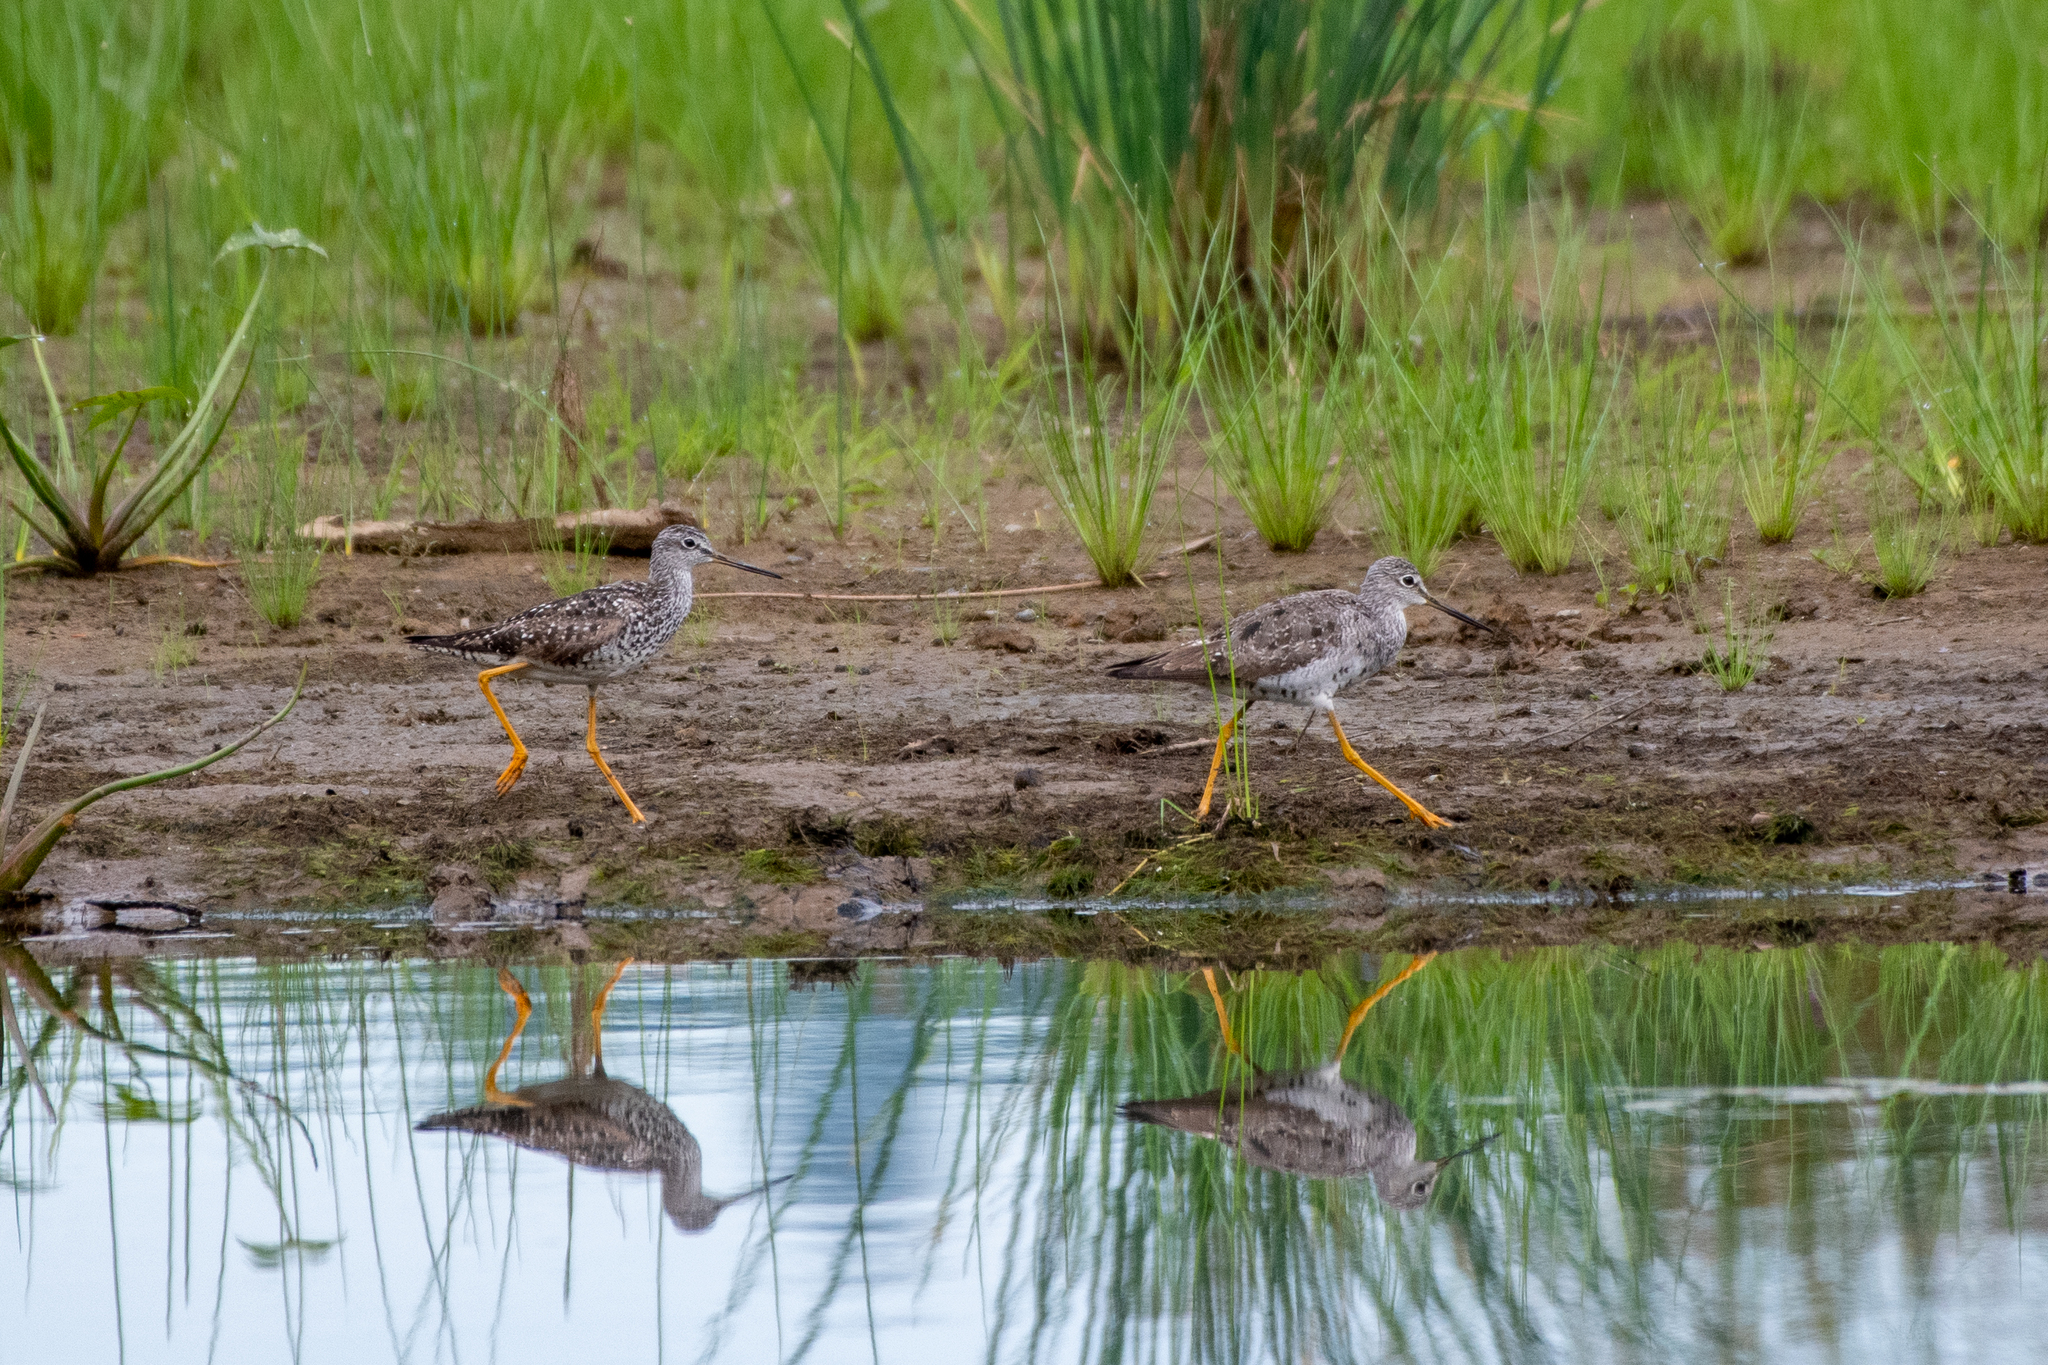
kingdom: Animalia
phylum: Chordata
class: Aves
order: Charadriiformes
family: Scolopacidae
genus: Tringa
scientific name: Tringa melanoleuca
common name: Greater yellowlegs
